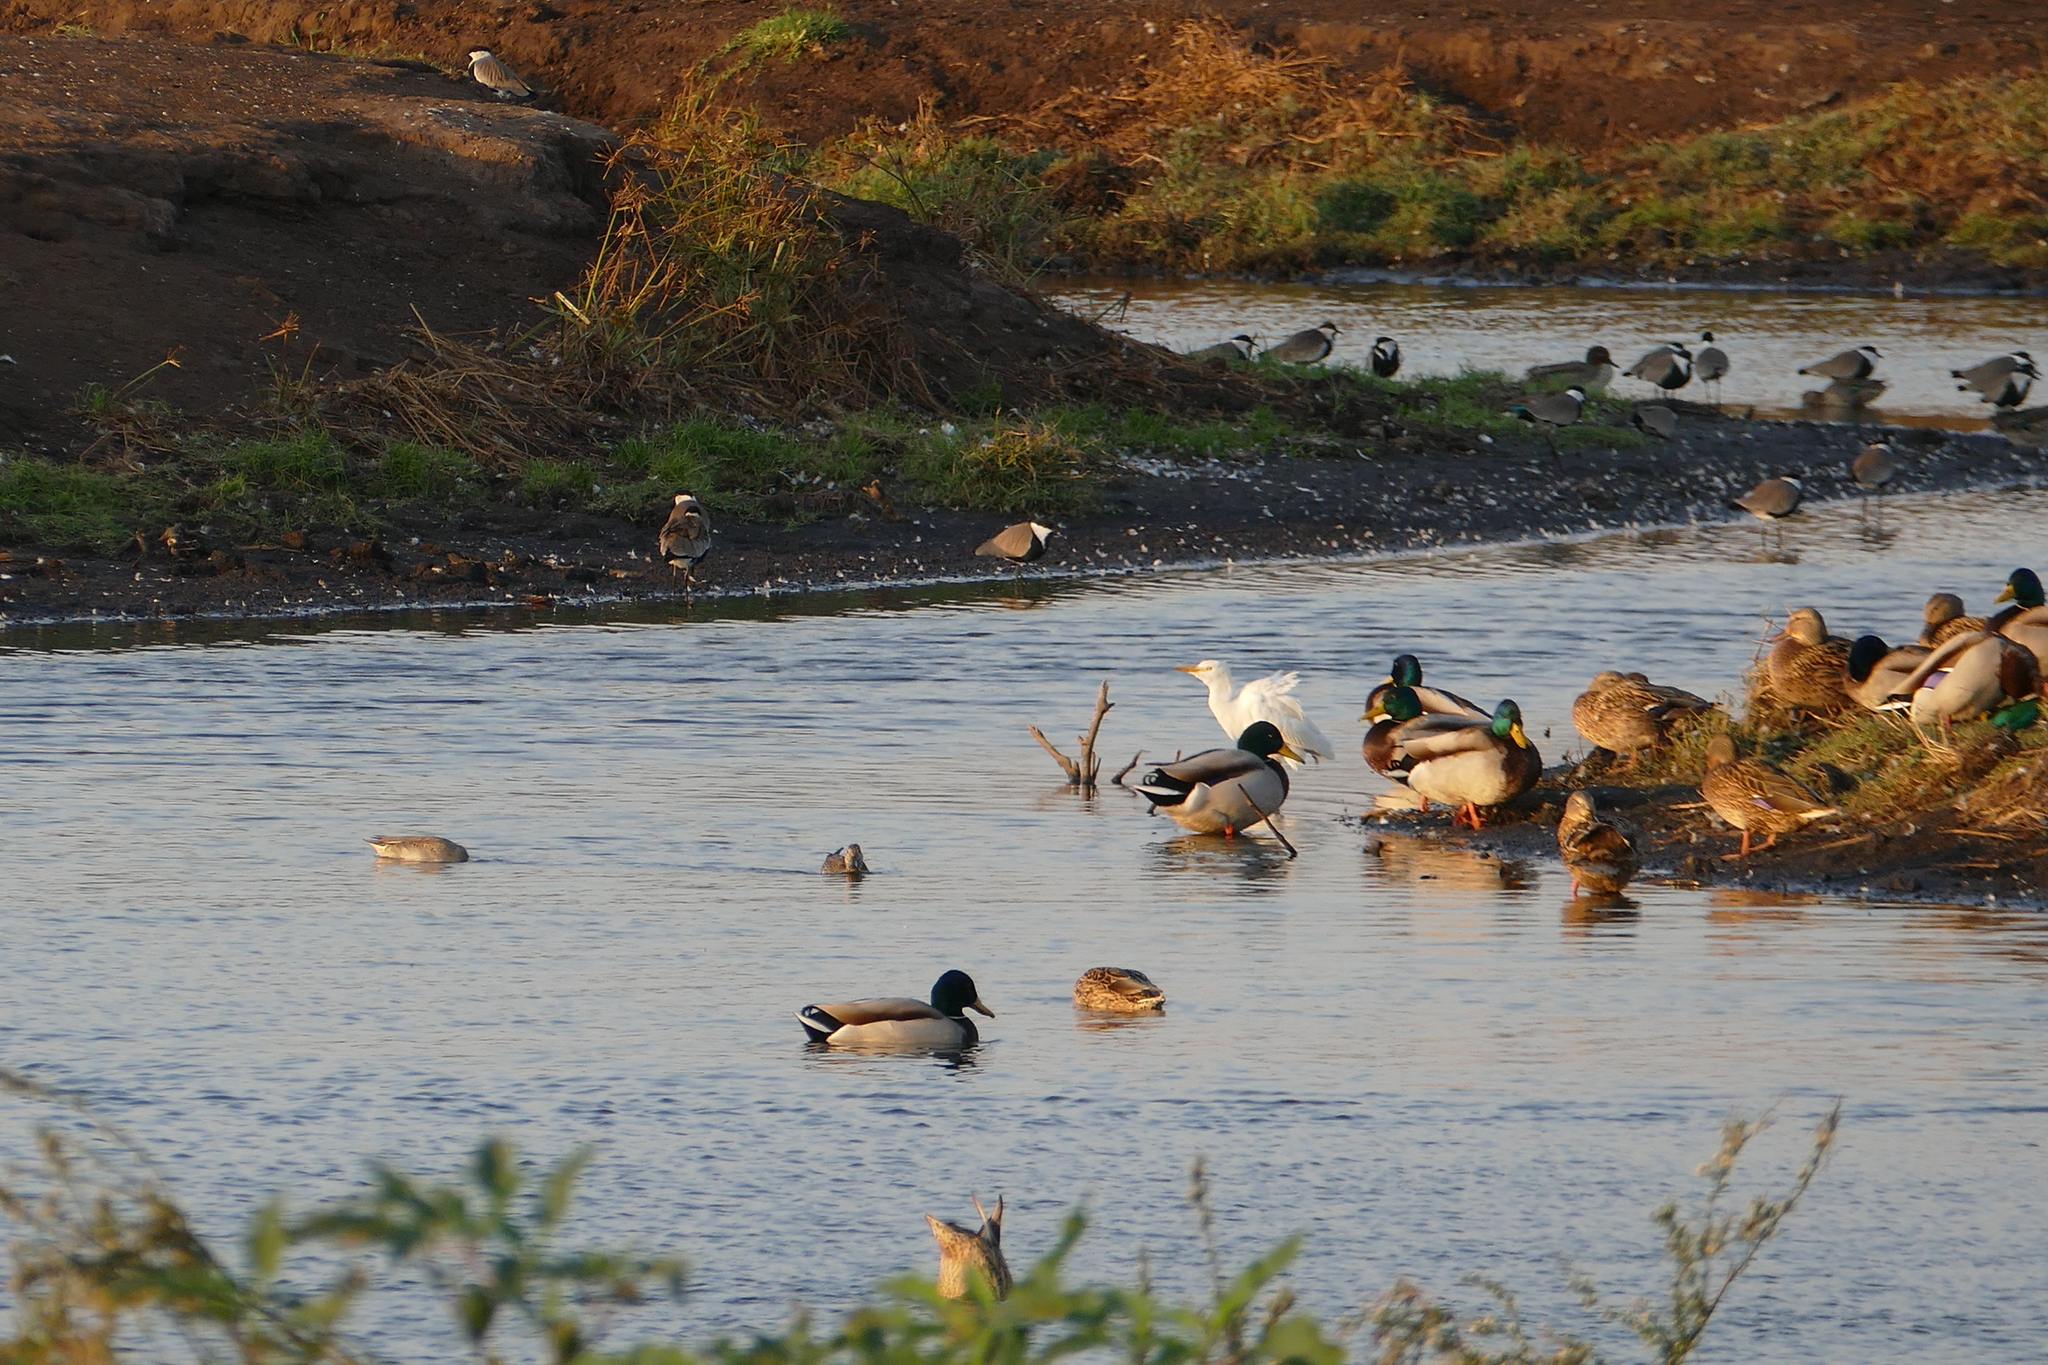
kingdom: Animalia
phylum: Chordata
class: Aves
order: Anseriformes
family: Anatidae
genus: Anas
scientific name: Anas platyrhynchos
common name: Mallard
